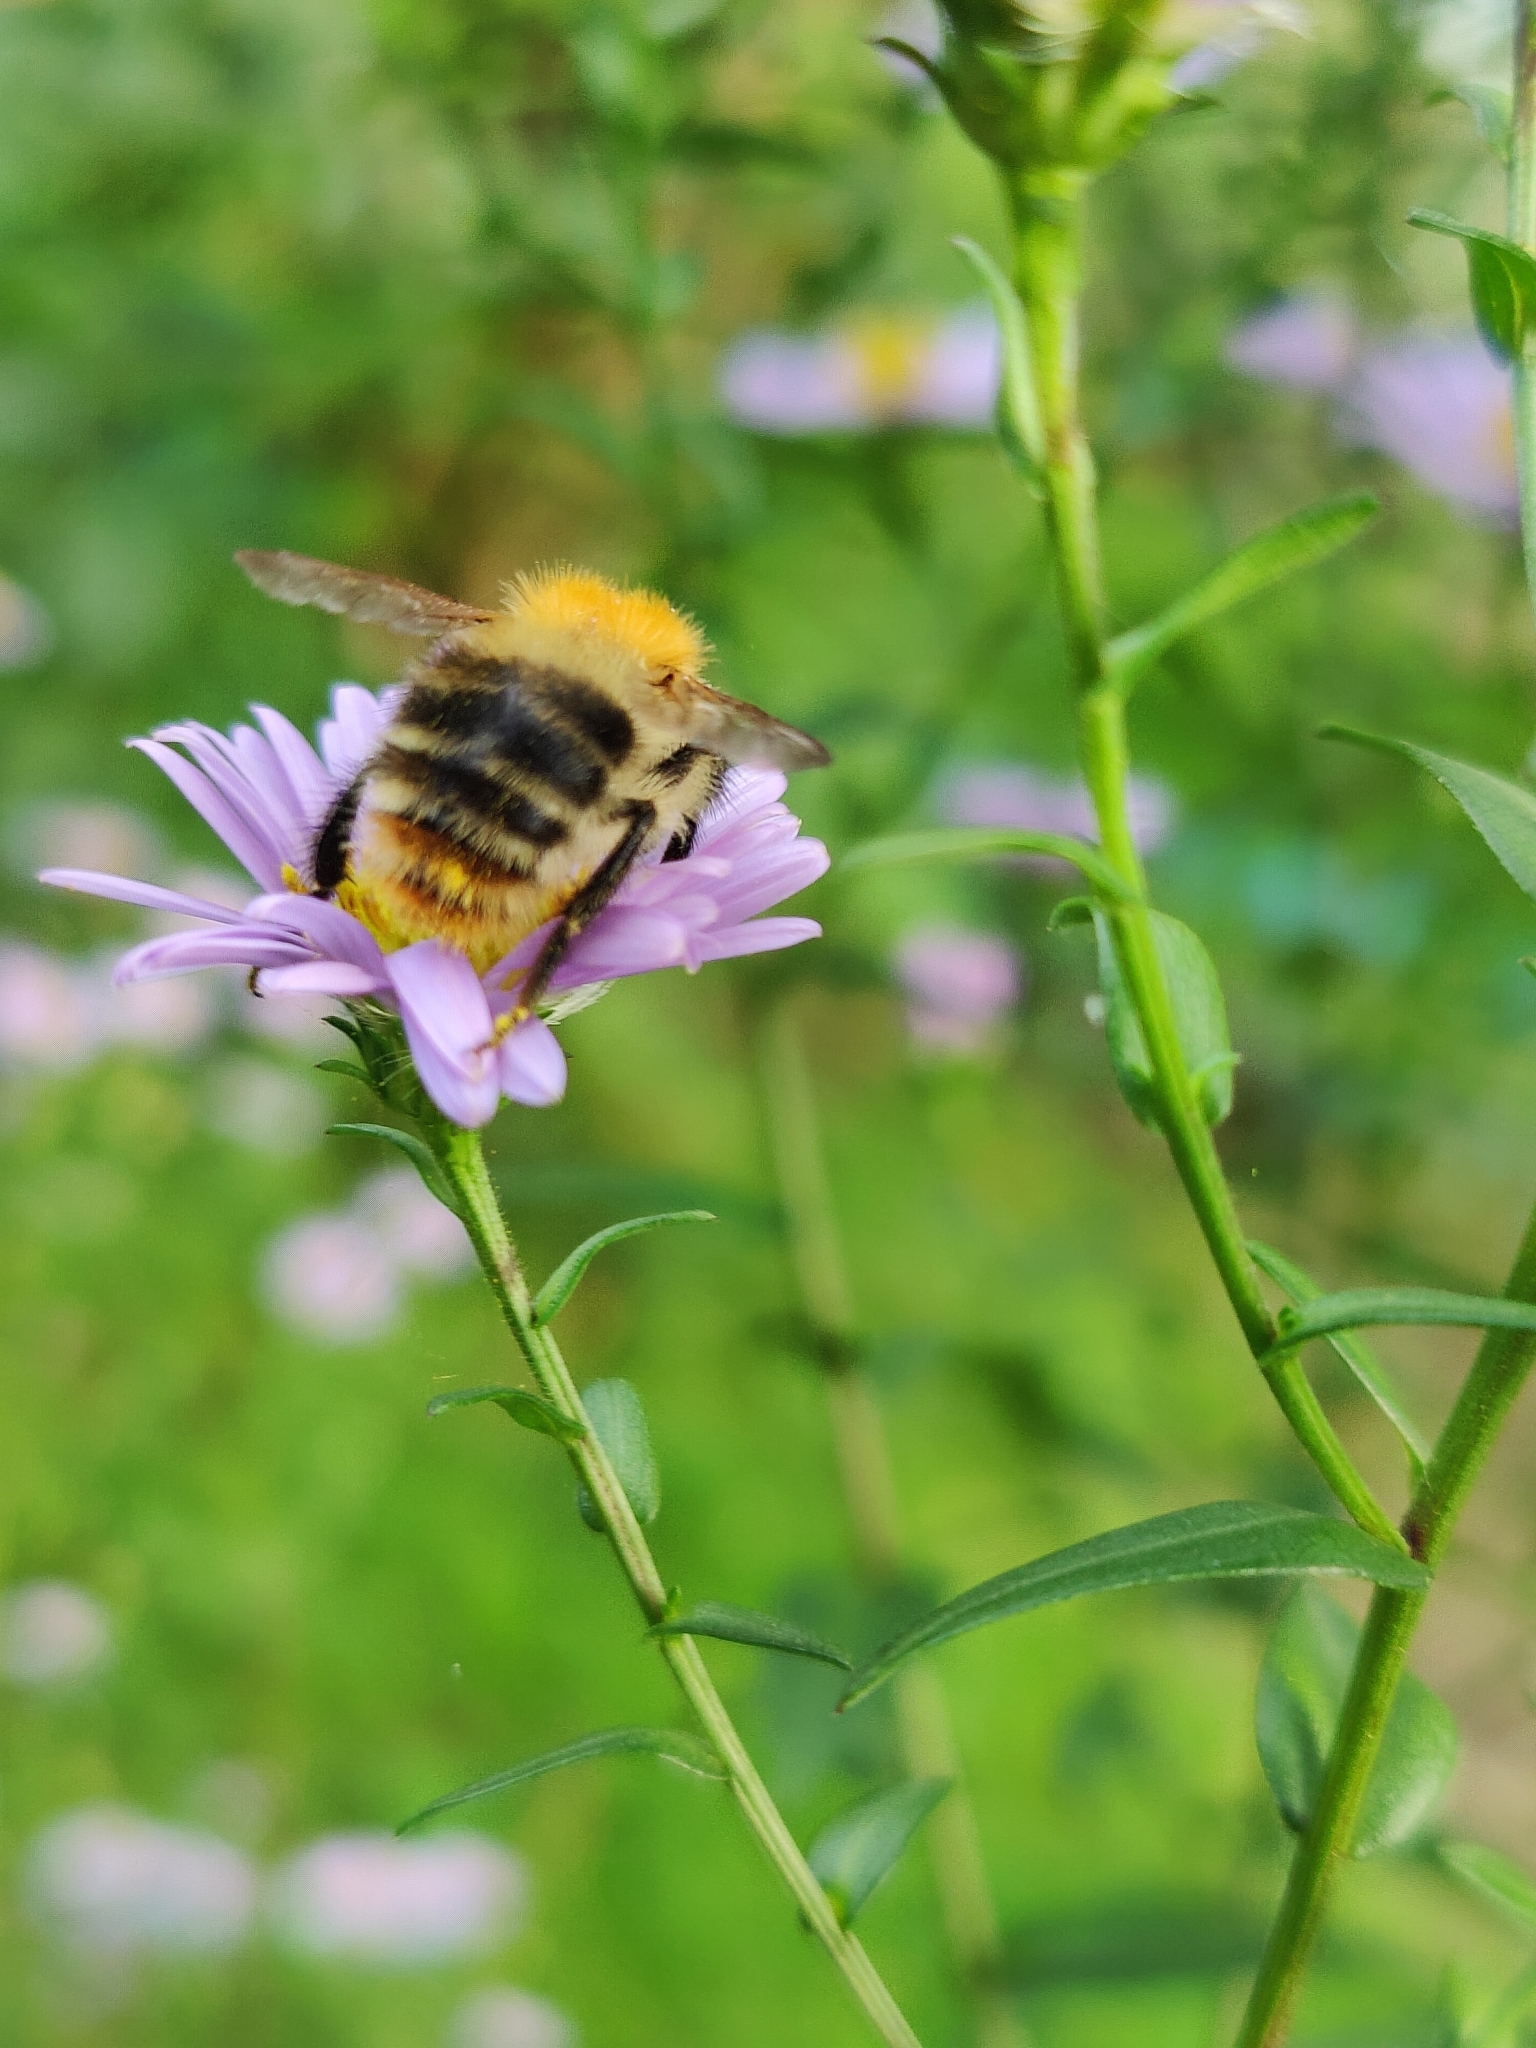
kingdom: Animalia
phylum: Arthropoda
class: Insecta
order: Hymenoptera
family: Apidae
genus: Bombus
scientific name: Bombus pascuorum
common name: Common carder bee
